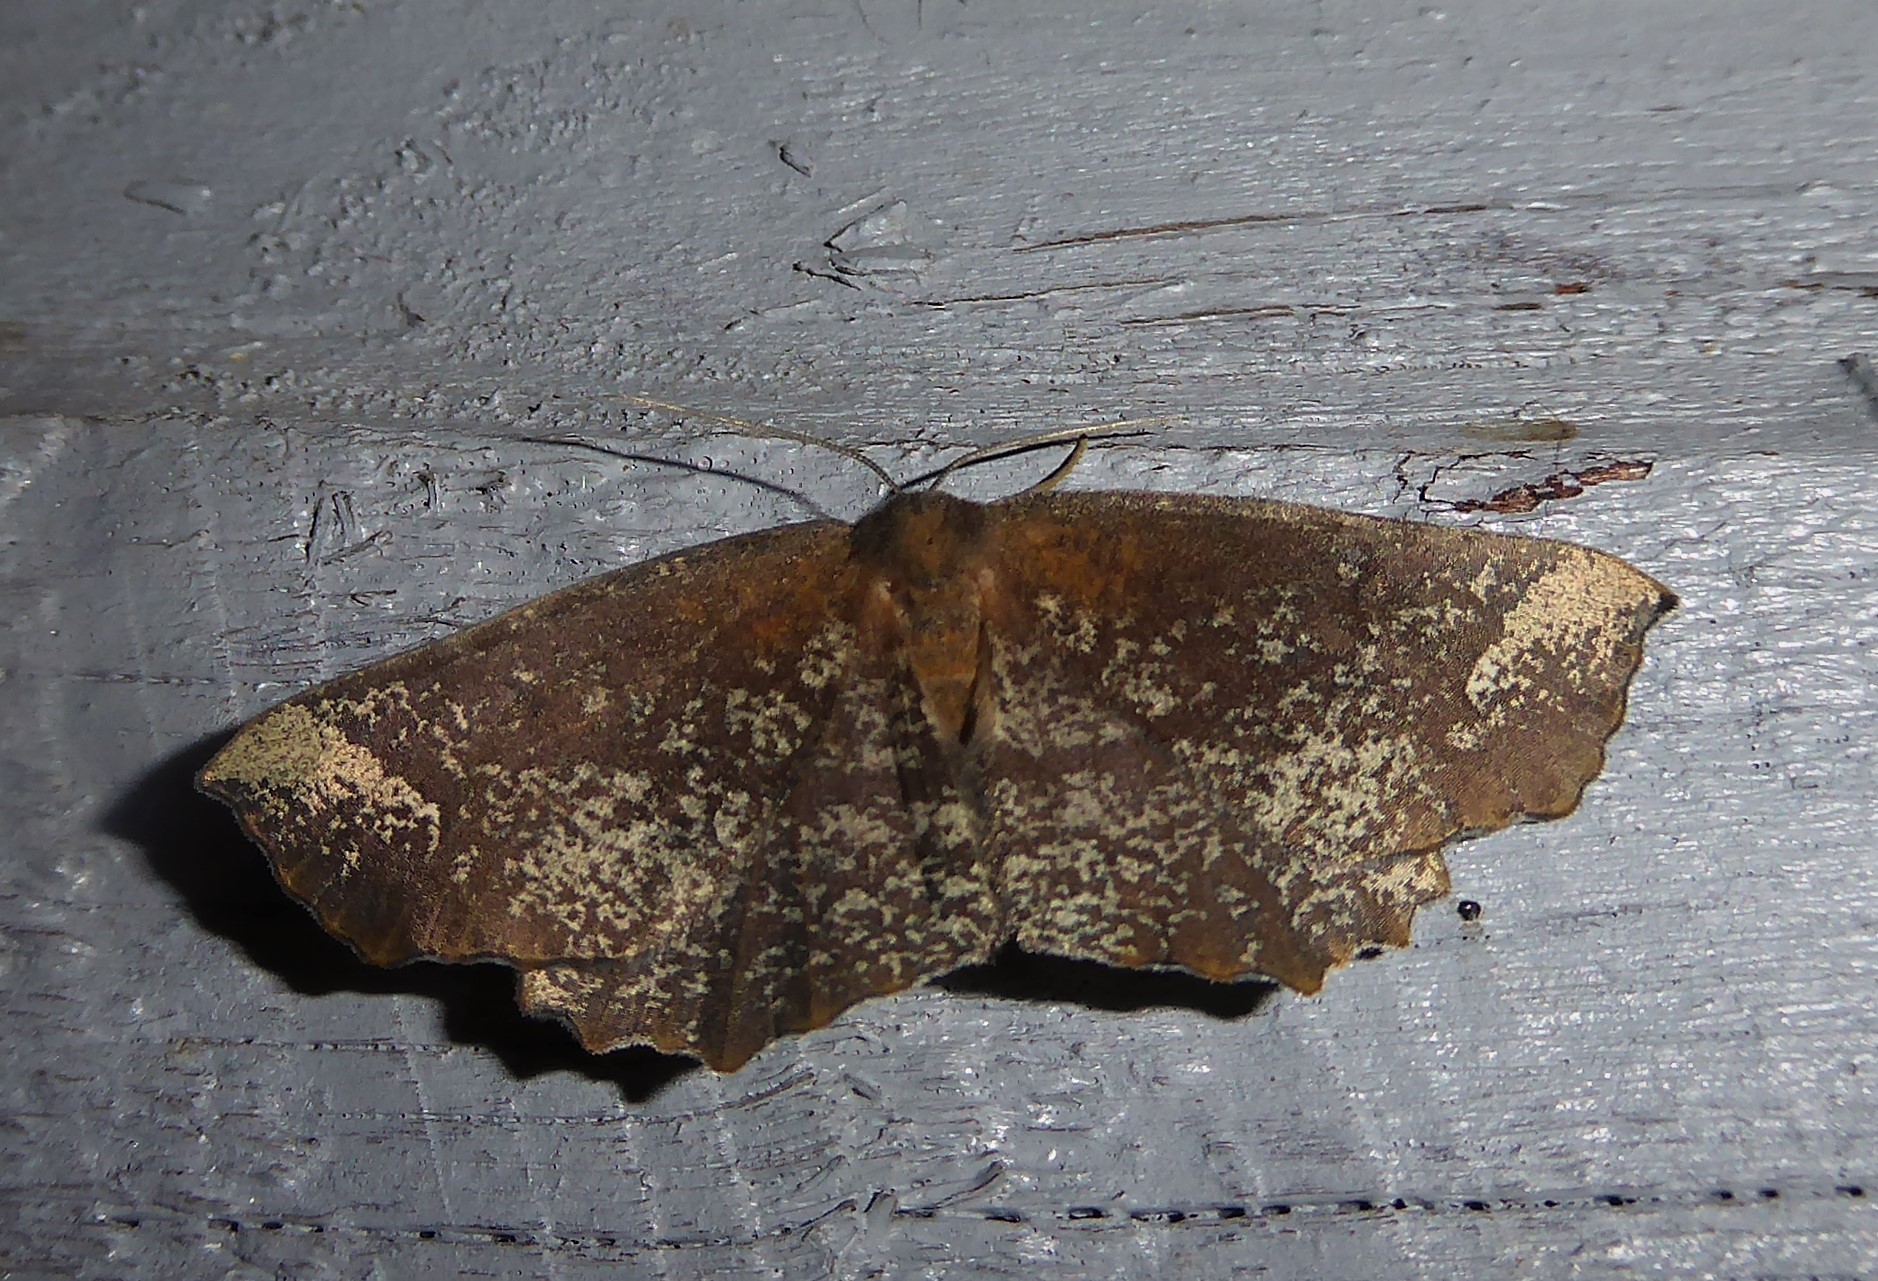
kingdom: Animalia
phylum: Arthropoda
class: Insecta
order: Lepidoptera
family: Geometridae
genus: Xyridacma
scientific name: Xyridacma ustaria
